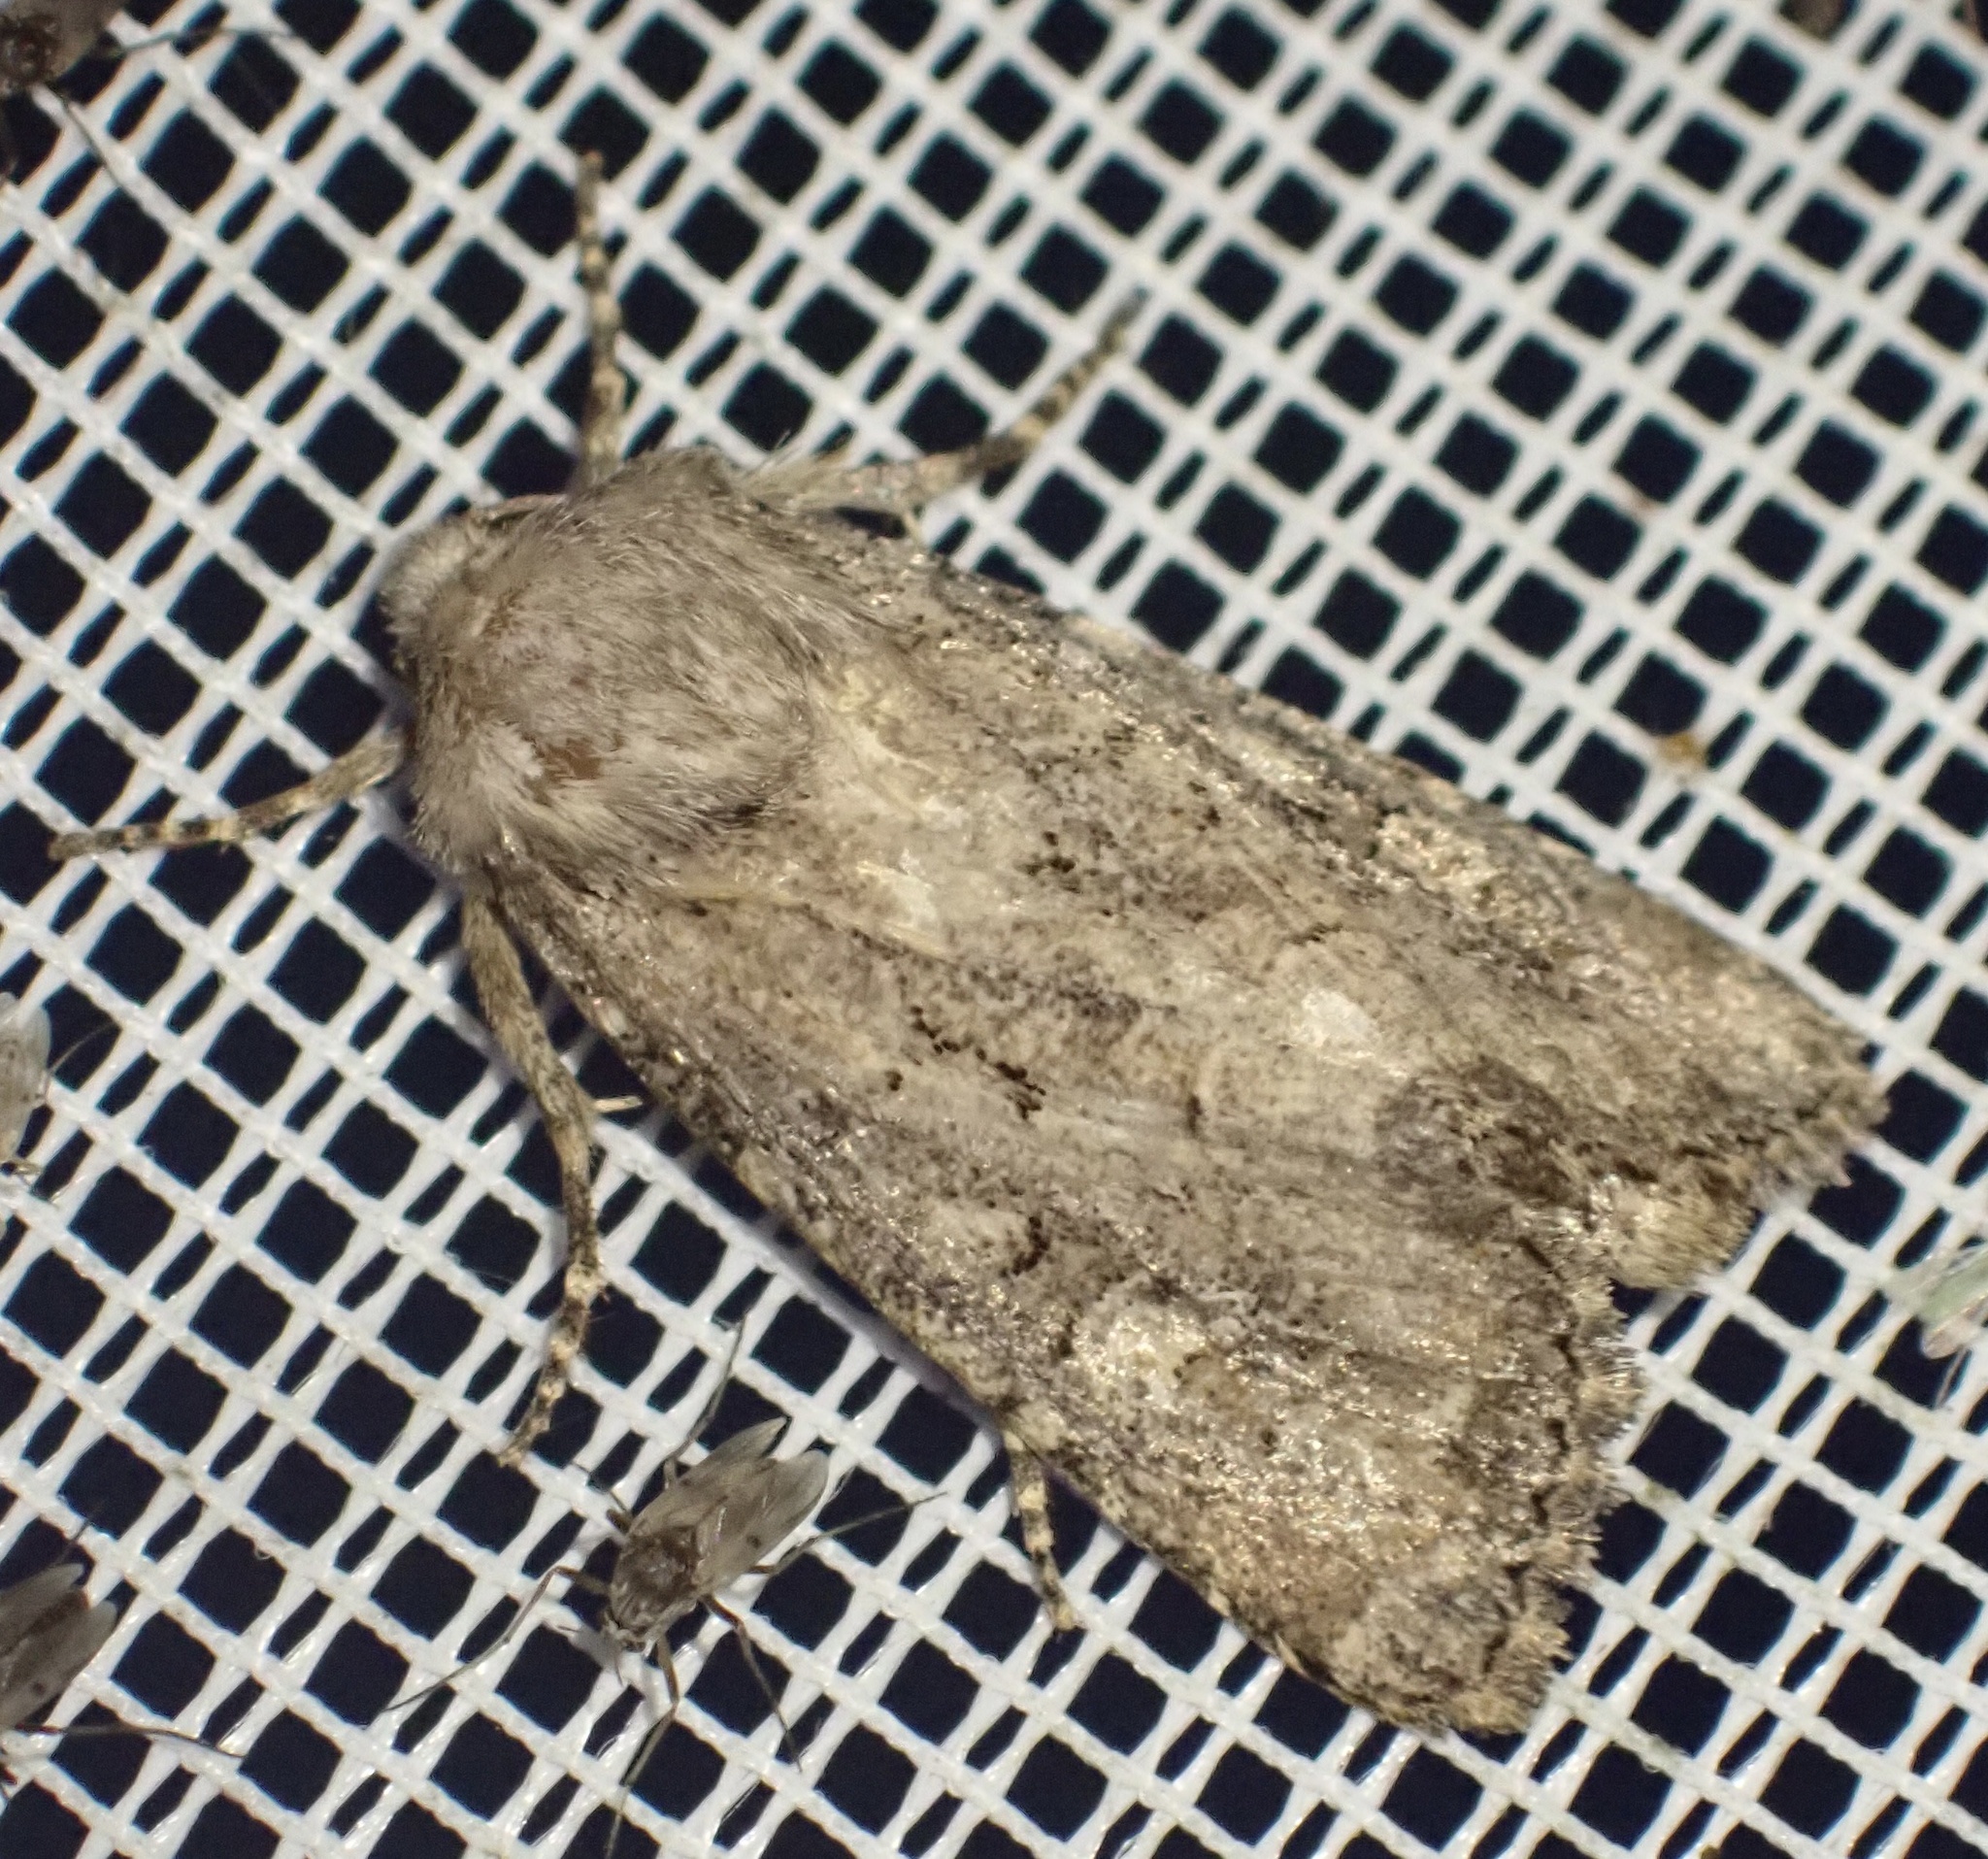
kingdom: Animalia
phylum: Arthropoda
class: Insecta
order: Lepidoptera
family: Noctuidae
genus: Luperina
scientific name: Luperina testacea
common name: Flounced rustic
